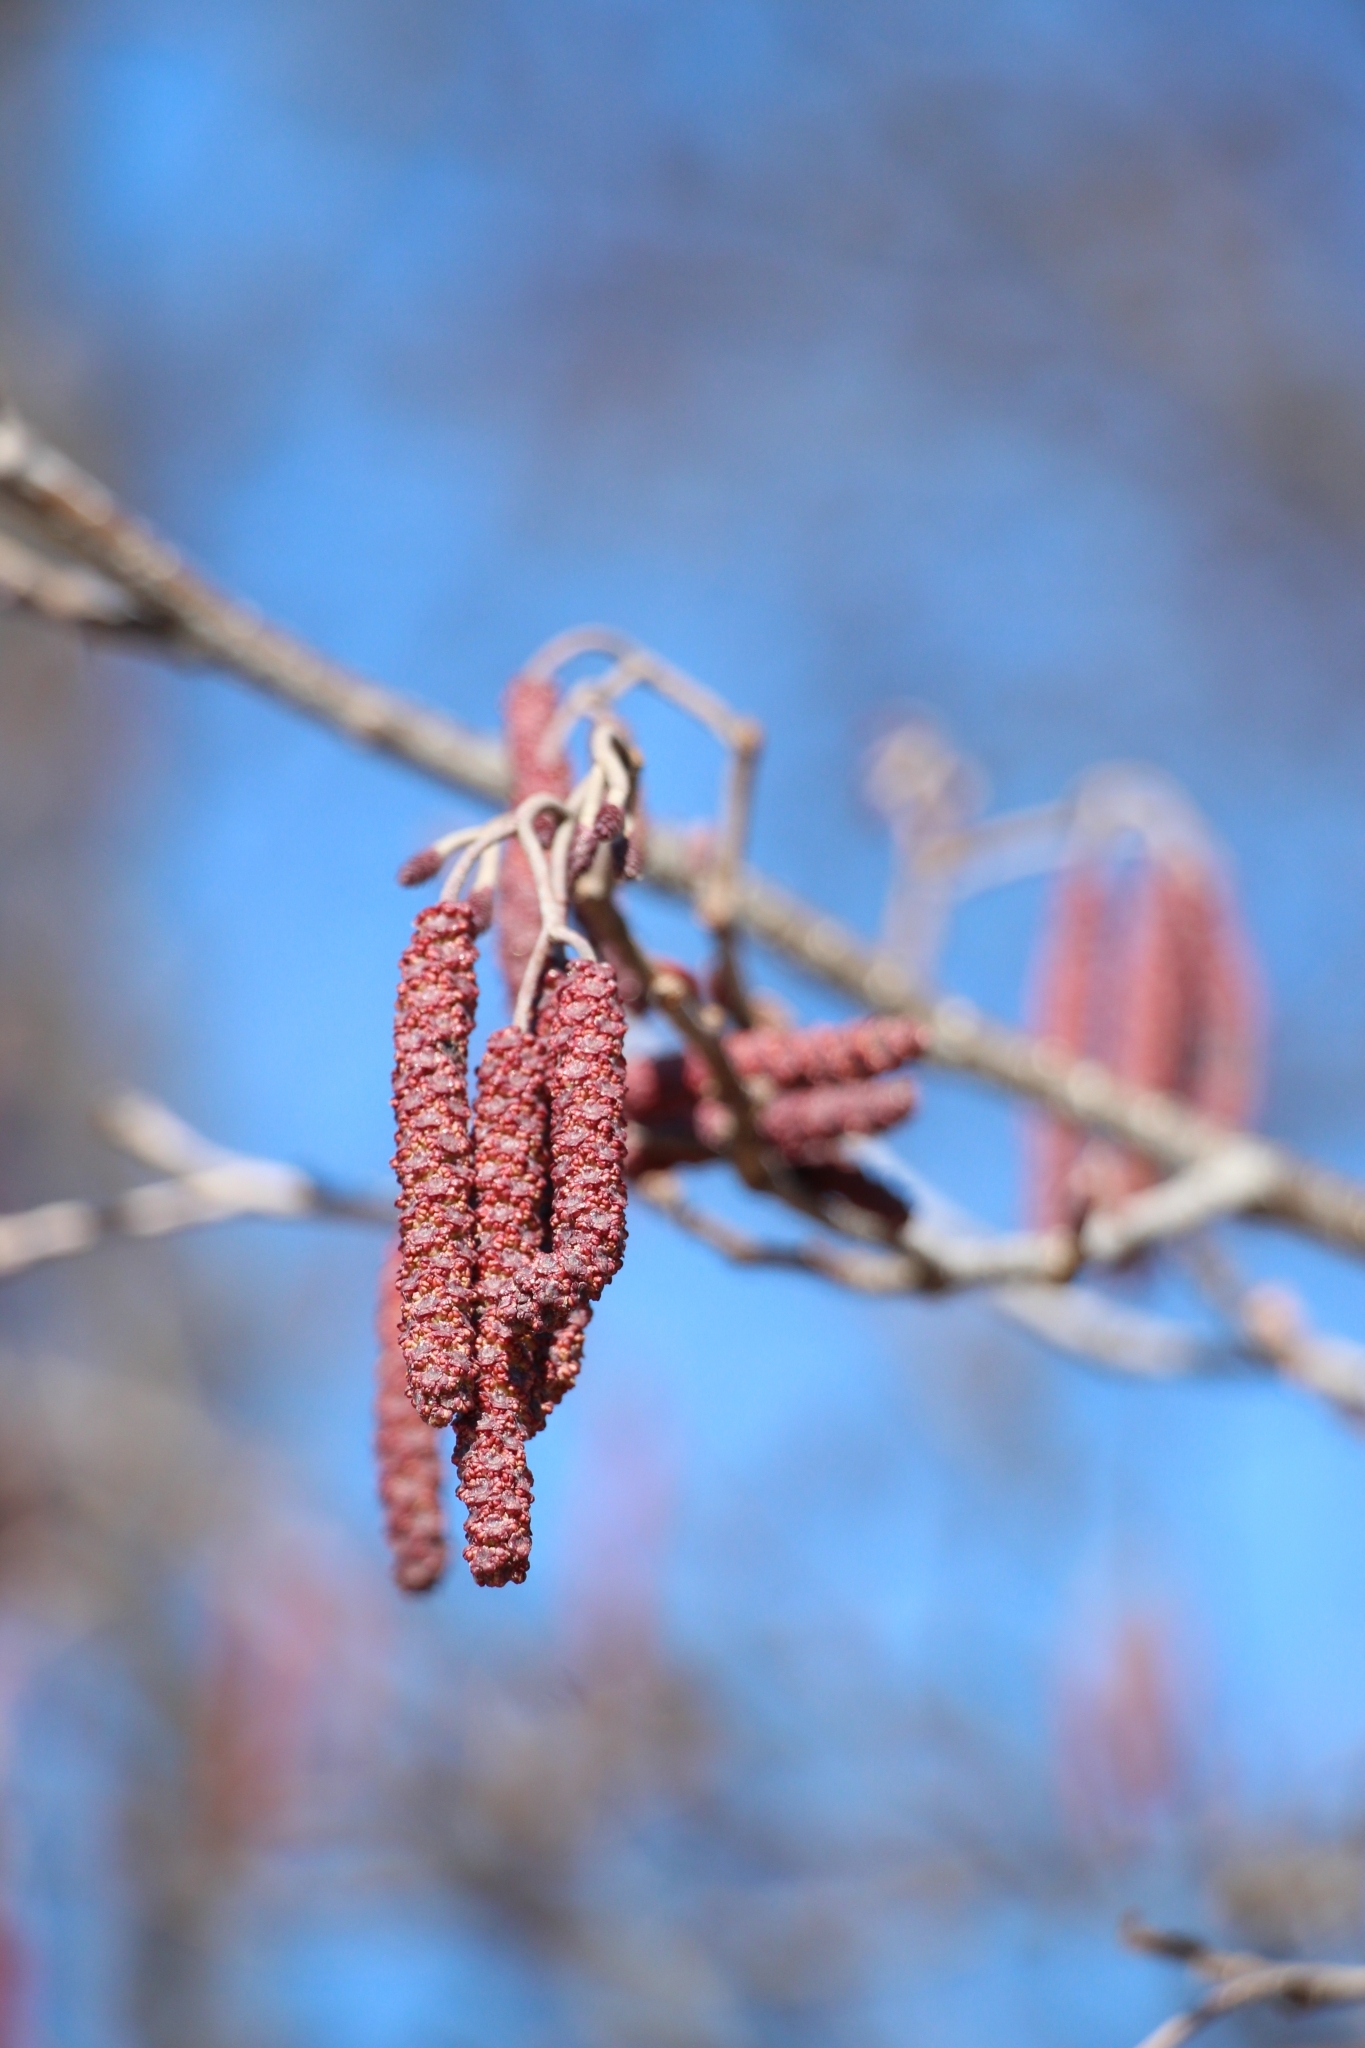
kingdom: Plantae
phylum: Tracheophyta
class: Magnoliopsida
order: Fagales
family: Betulaceae
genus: Alnus
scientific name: Alnus glutinosa
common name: Black alder
